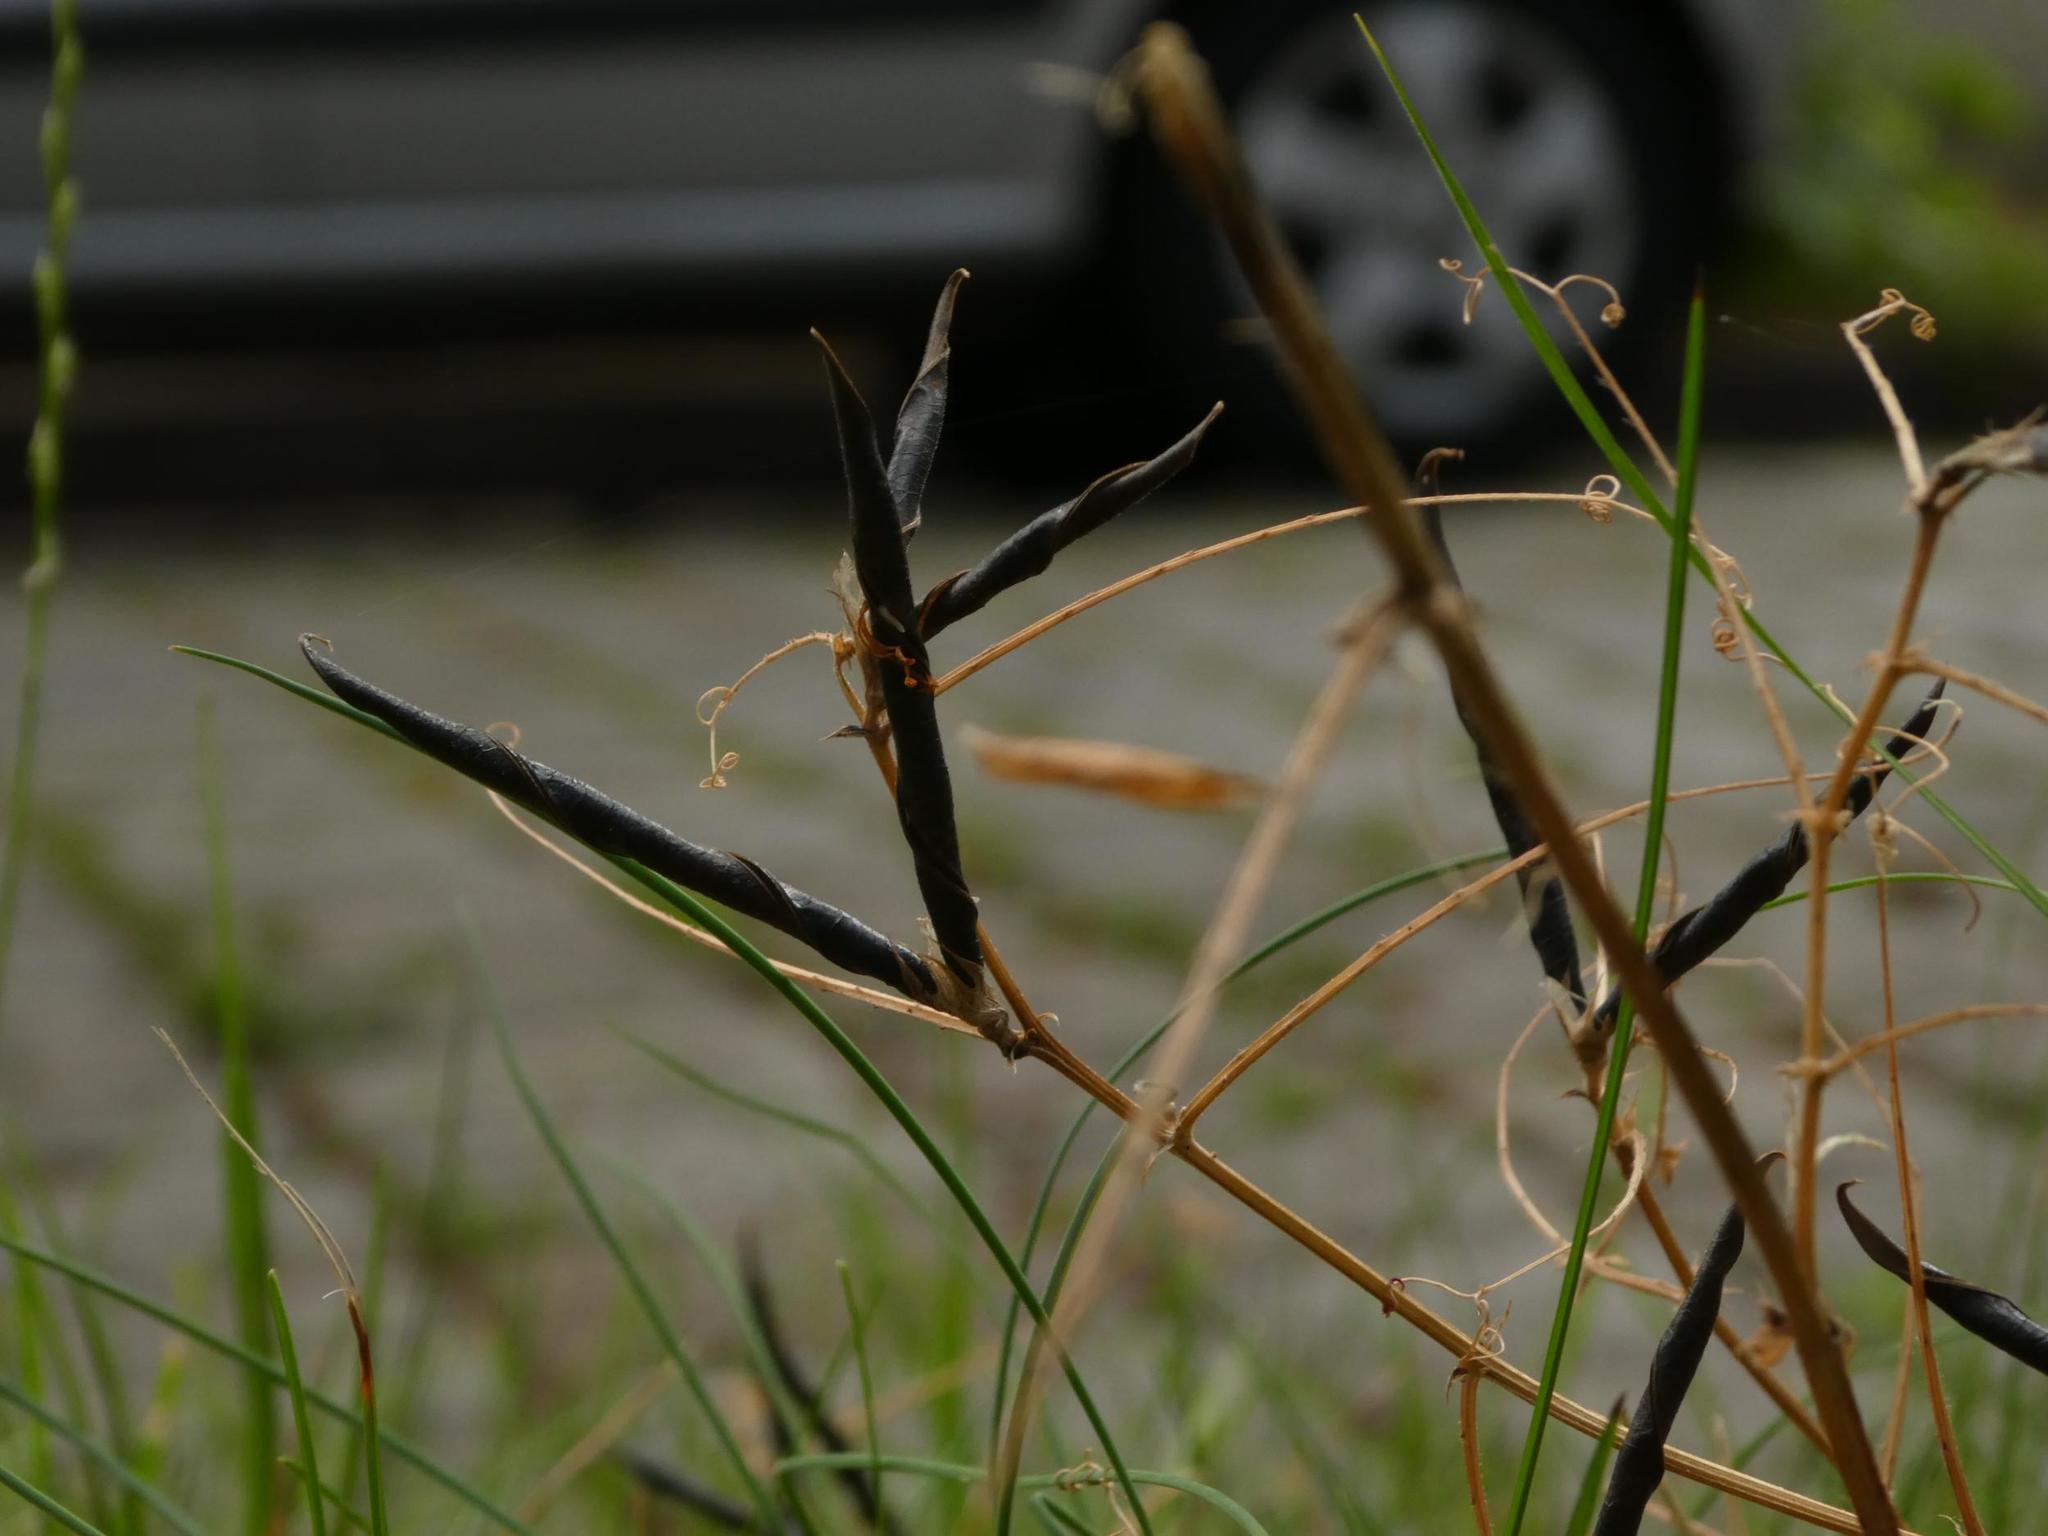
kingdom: Plantae
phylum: Tracheophyta
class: Magnoliopsida
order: Fabales
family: Fabaceae
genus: Vicia
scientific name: Vicia sativa
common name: Garden vetch
